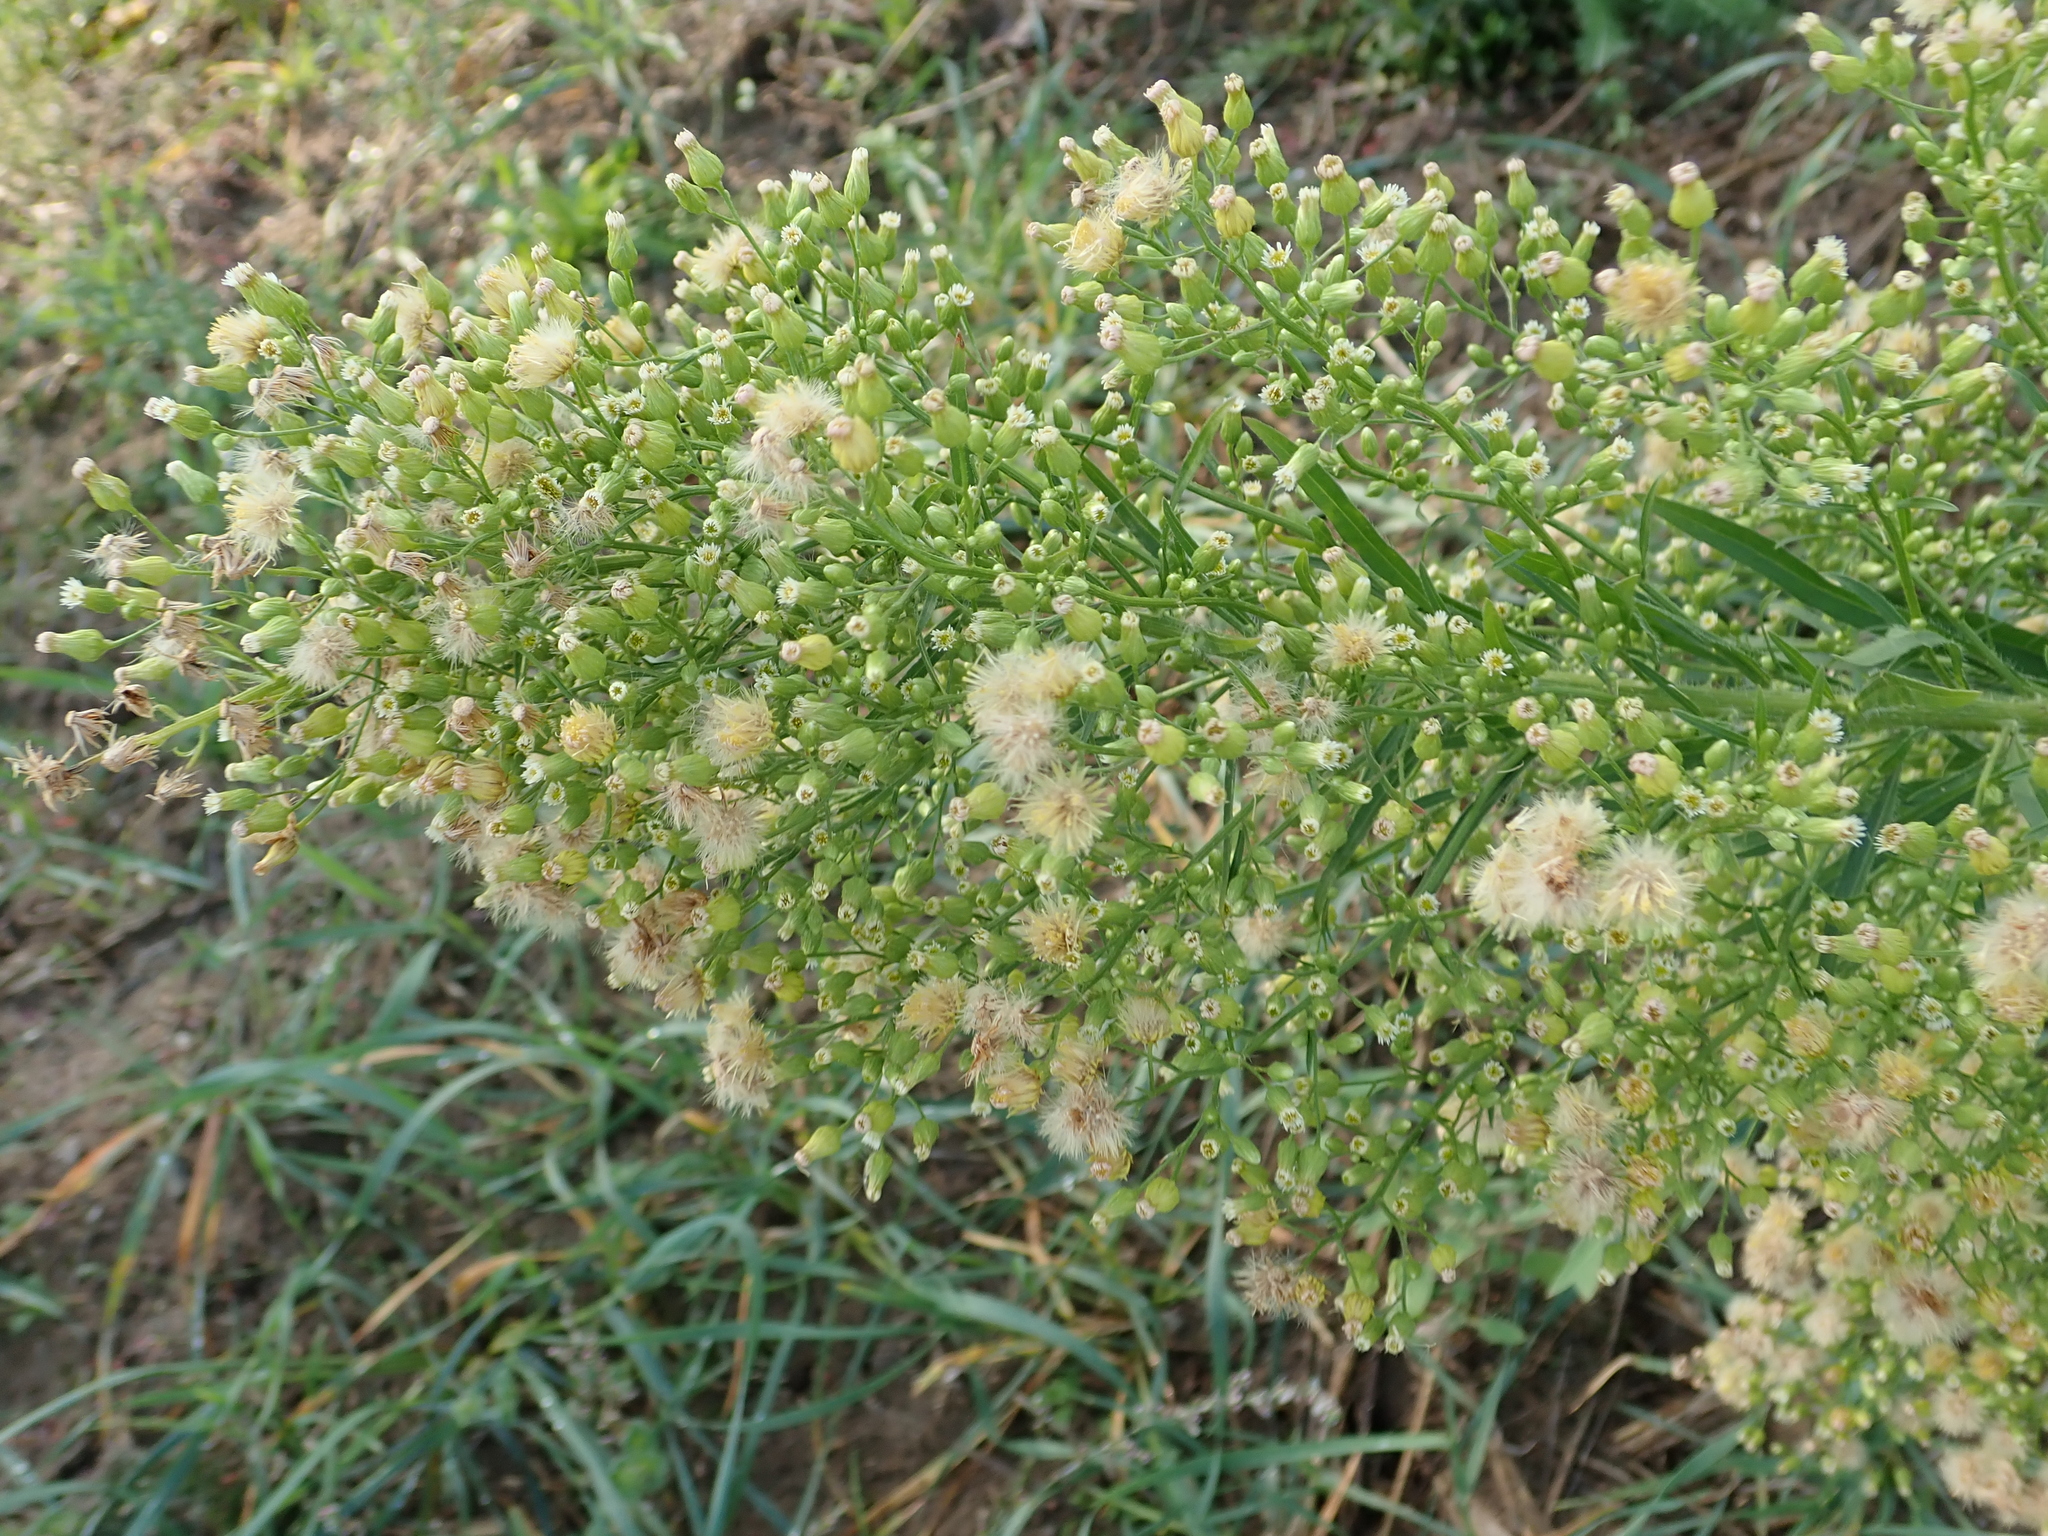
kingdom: Plantae
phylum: Tracheophyta
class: Magnoliopsida
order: Asterales
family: Asteraceae
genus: Erigeron
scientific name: Erigeron canadensis
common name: Canadian fleabane
